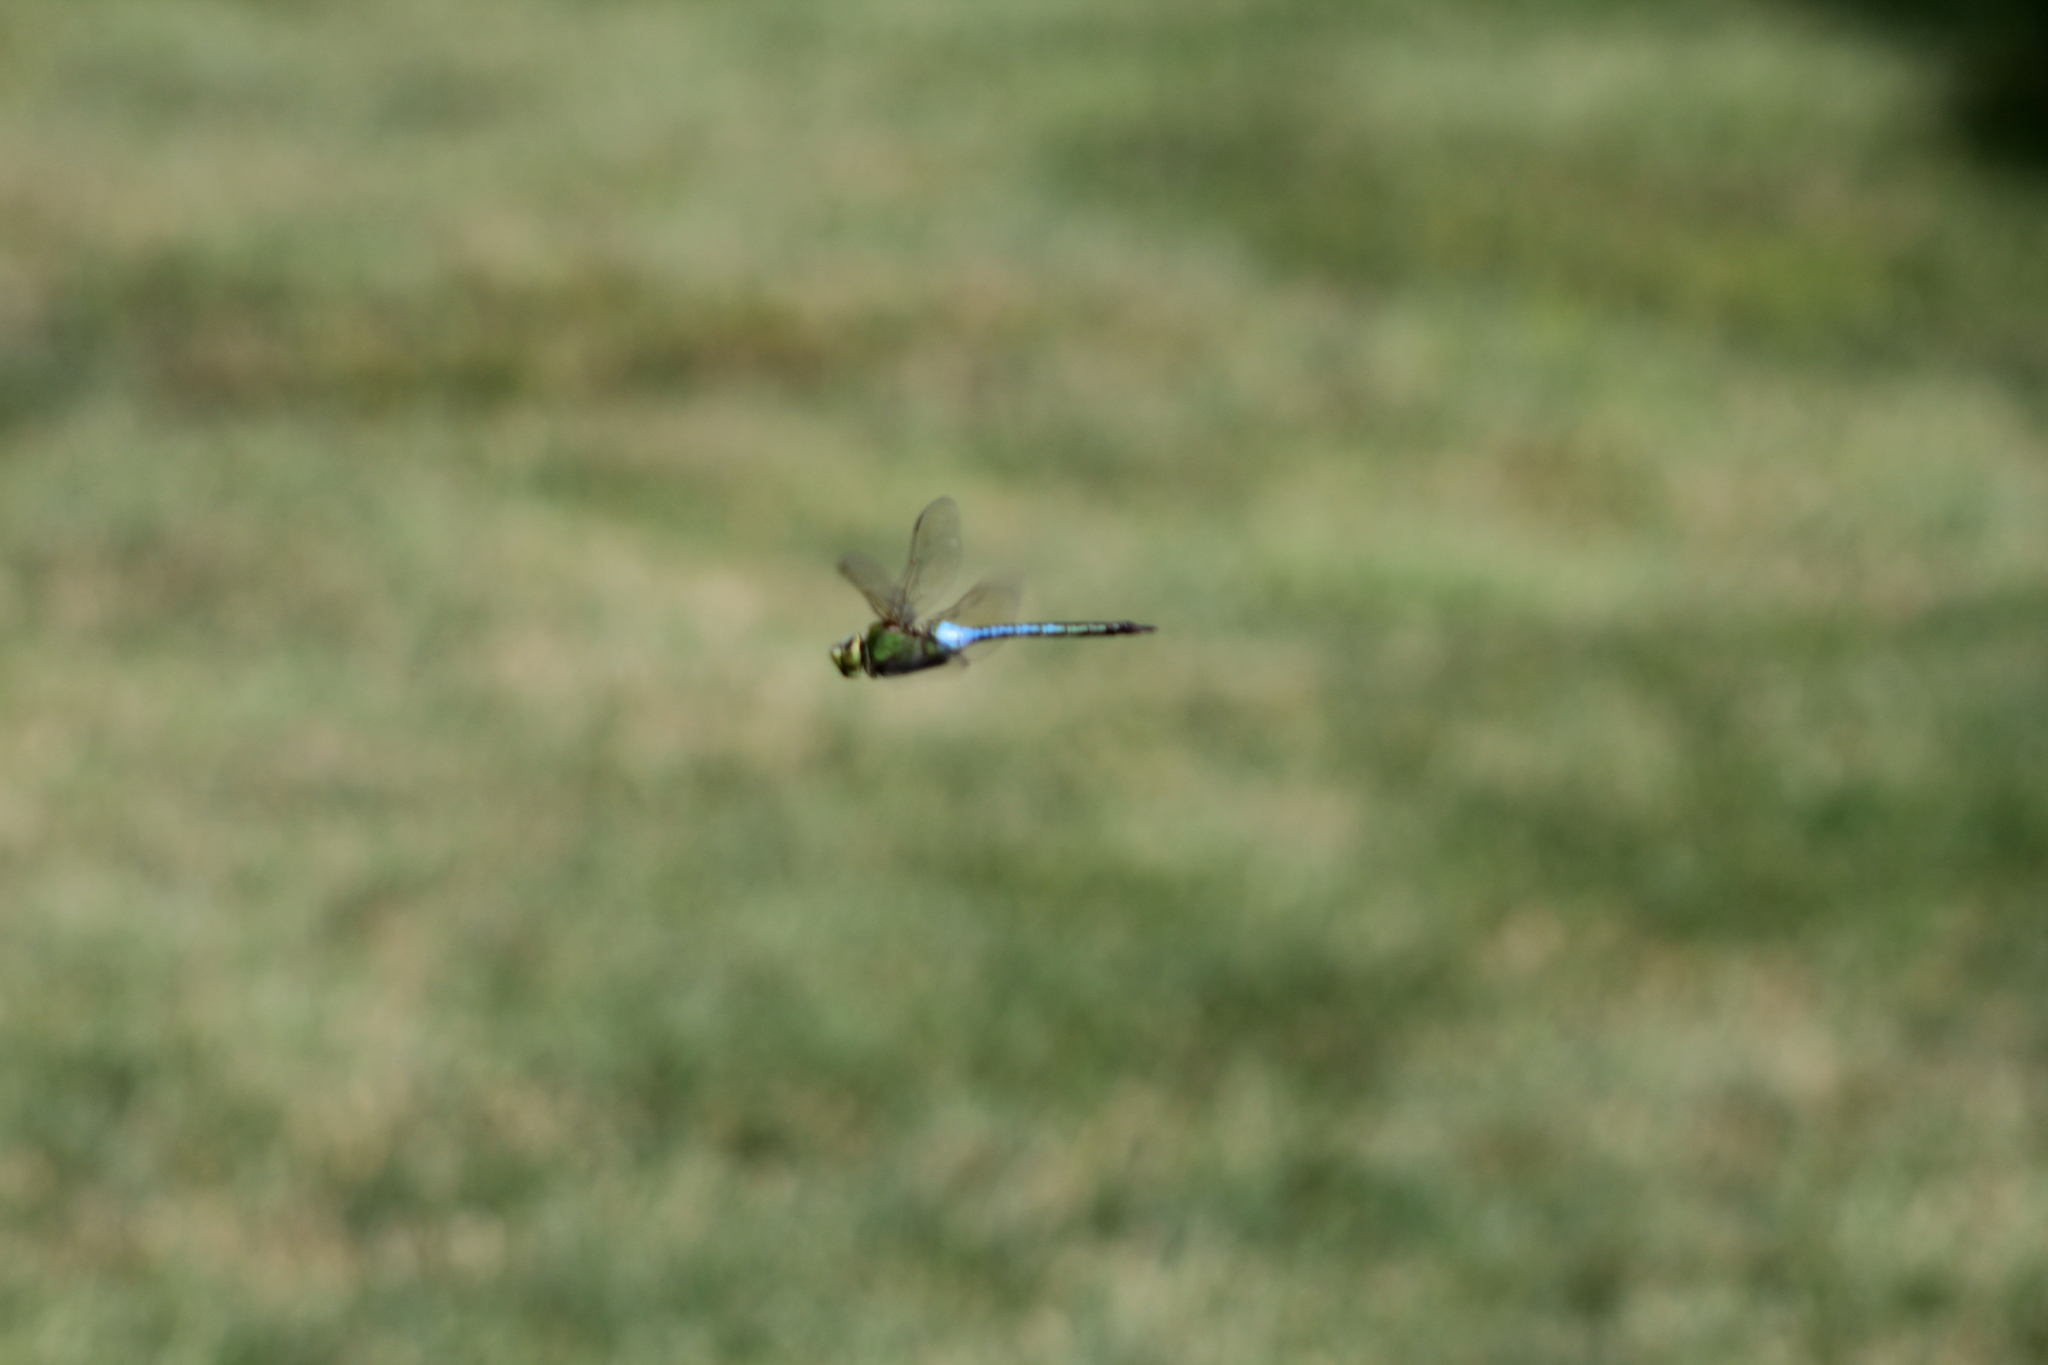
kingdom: Animalia
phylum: Arthropoda
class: Insecta
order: Odonata
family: Aeshnidae
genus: Anax
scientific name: Anax junius
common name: Common green darner
